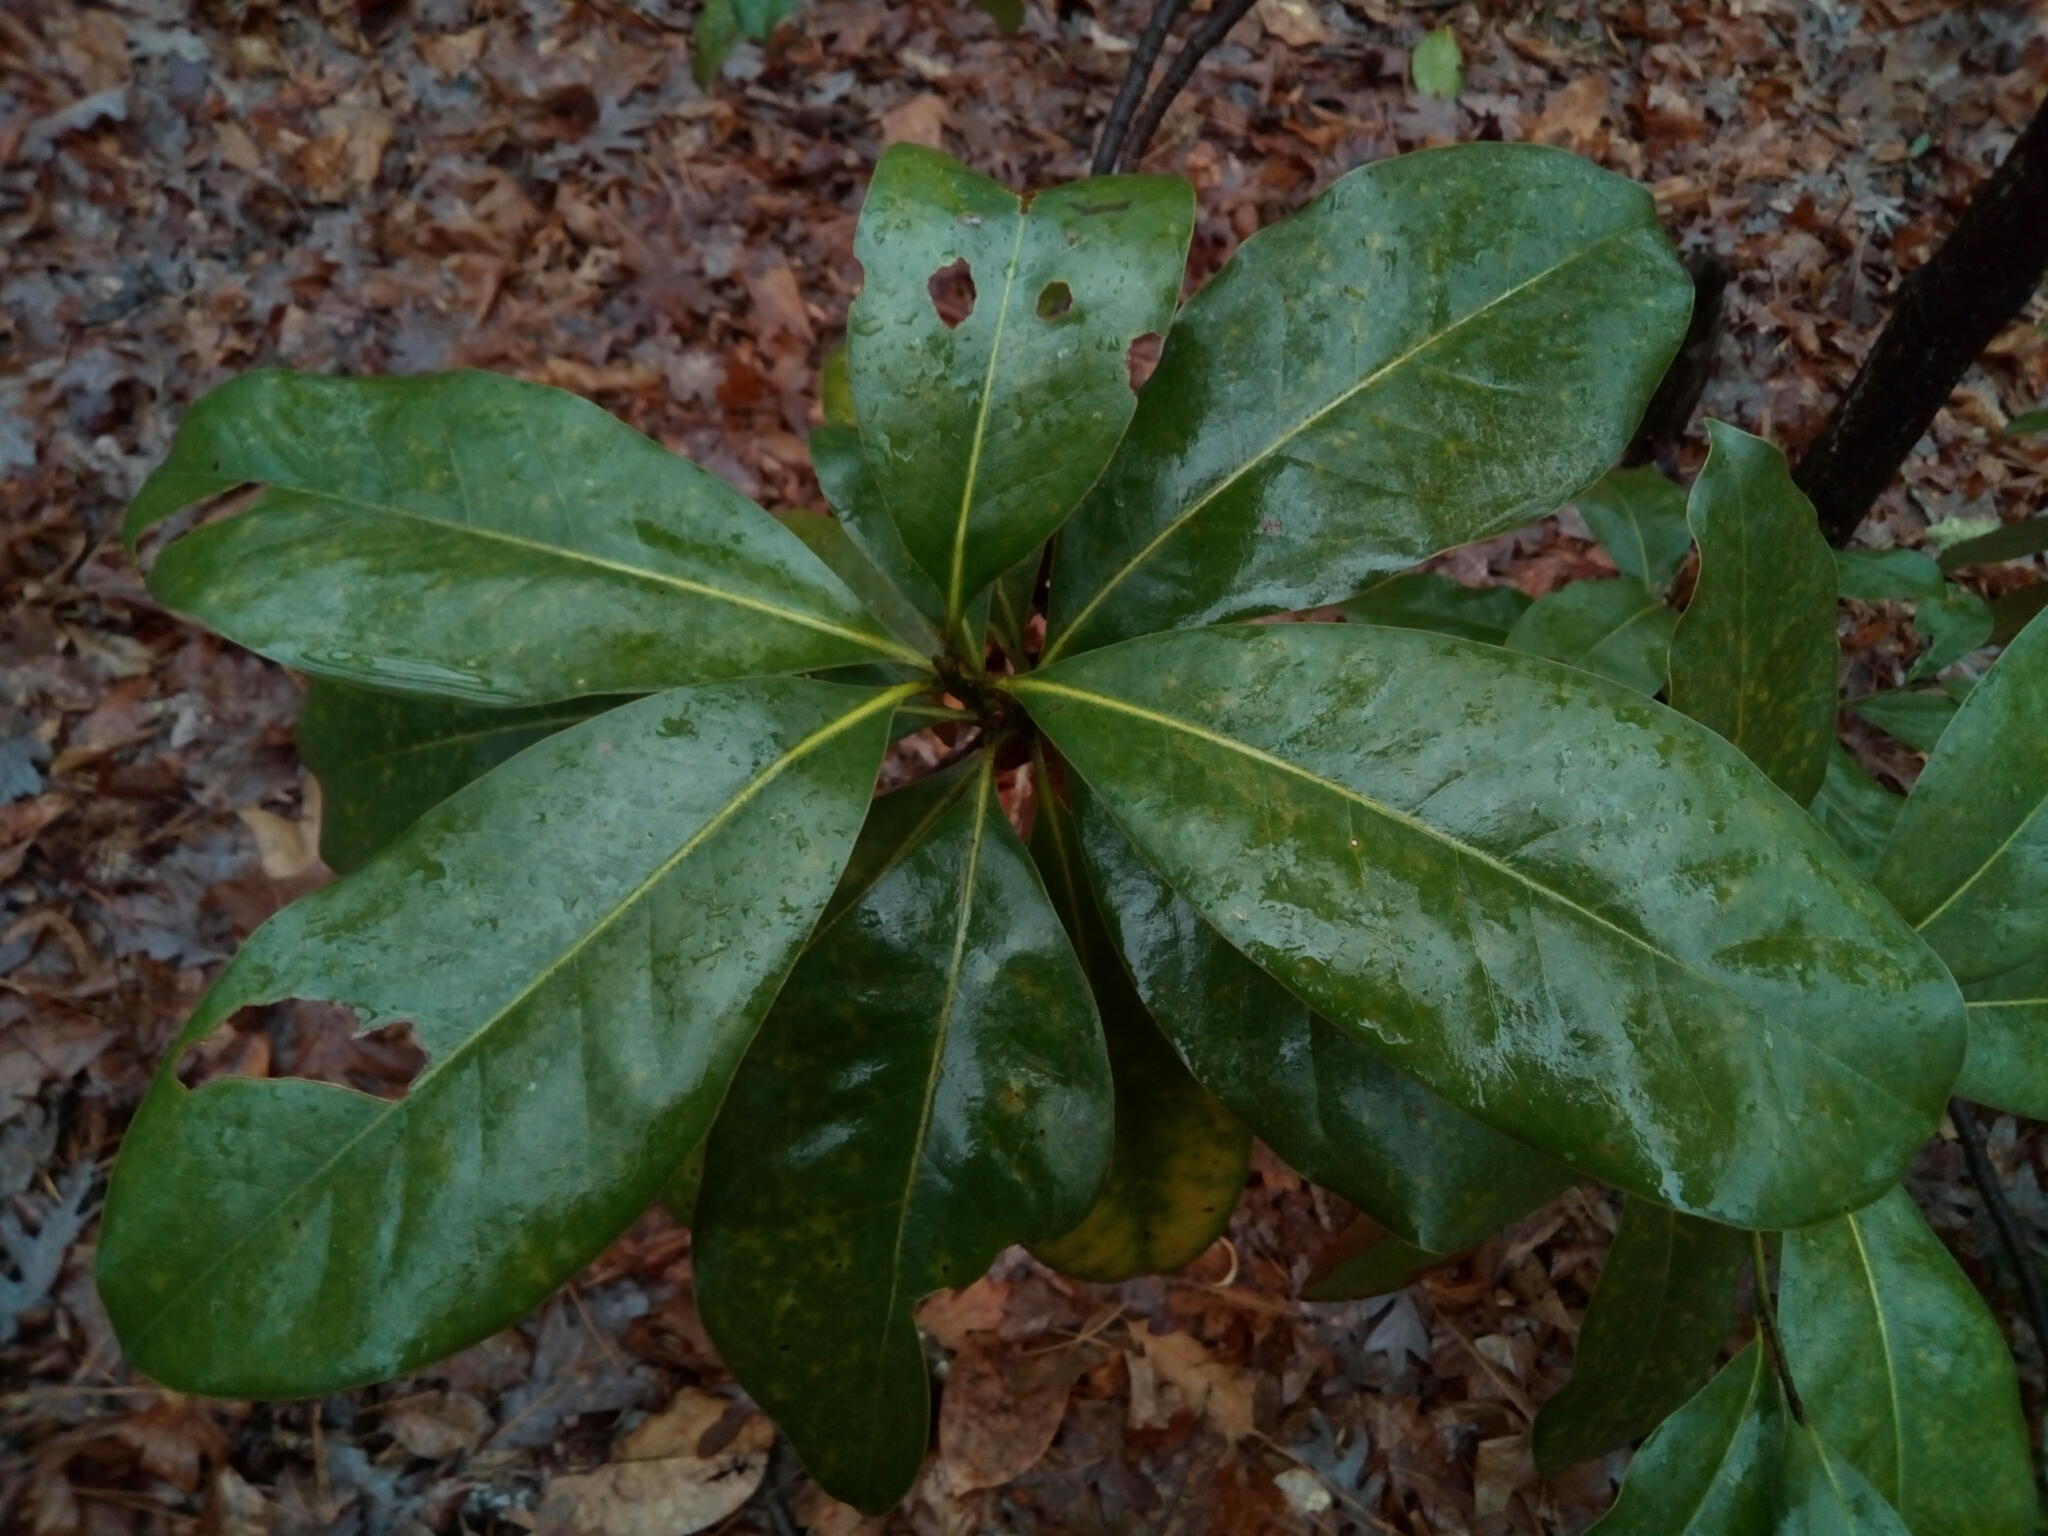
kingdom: Plantae
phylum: Tracheophyta
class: Magnoliopsida
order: Magnoliales
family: Magnoliaceae
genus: Magnolia
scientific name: Magnolia grandiflora
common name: Southern magnolia
